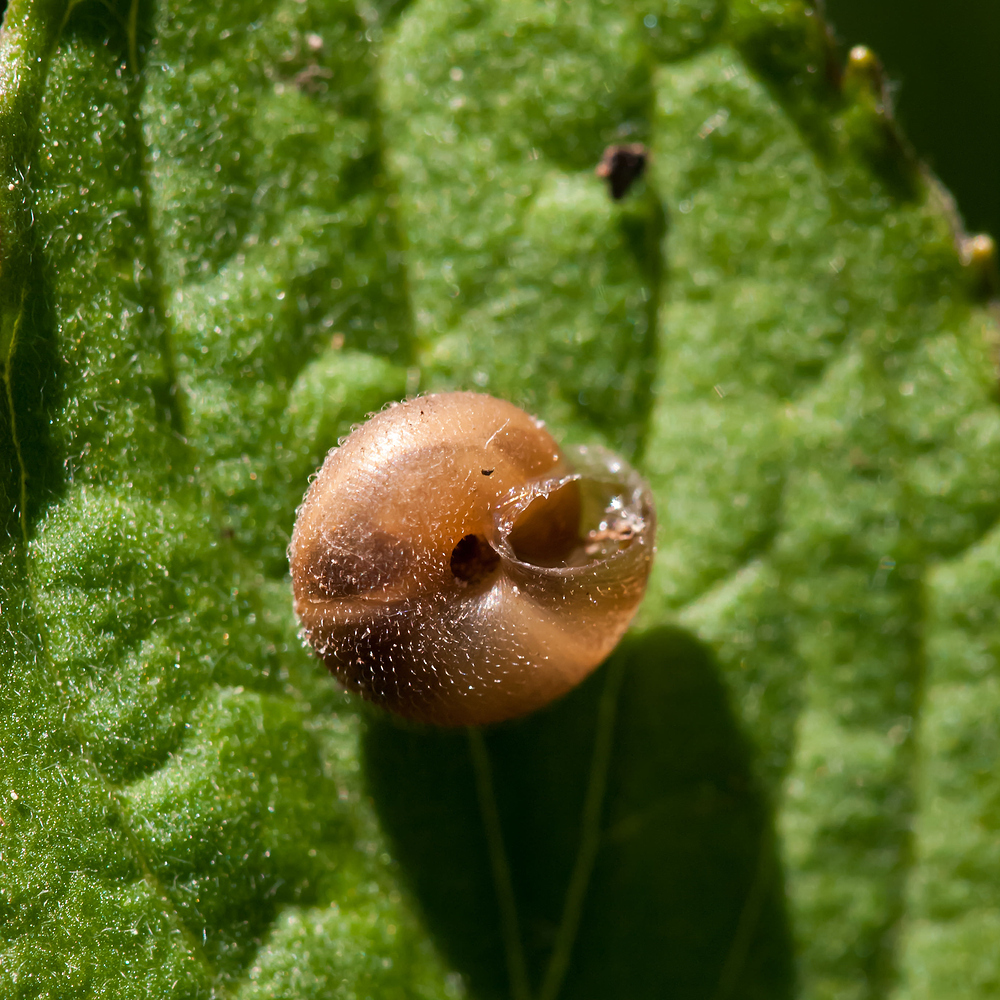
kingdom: Animalia
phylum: Mollusca
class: Gastropoda
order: Stylommatophora
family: Hygromiidae
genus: Trochulus
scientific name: Trochulus hispidus
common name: Hairy snail
